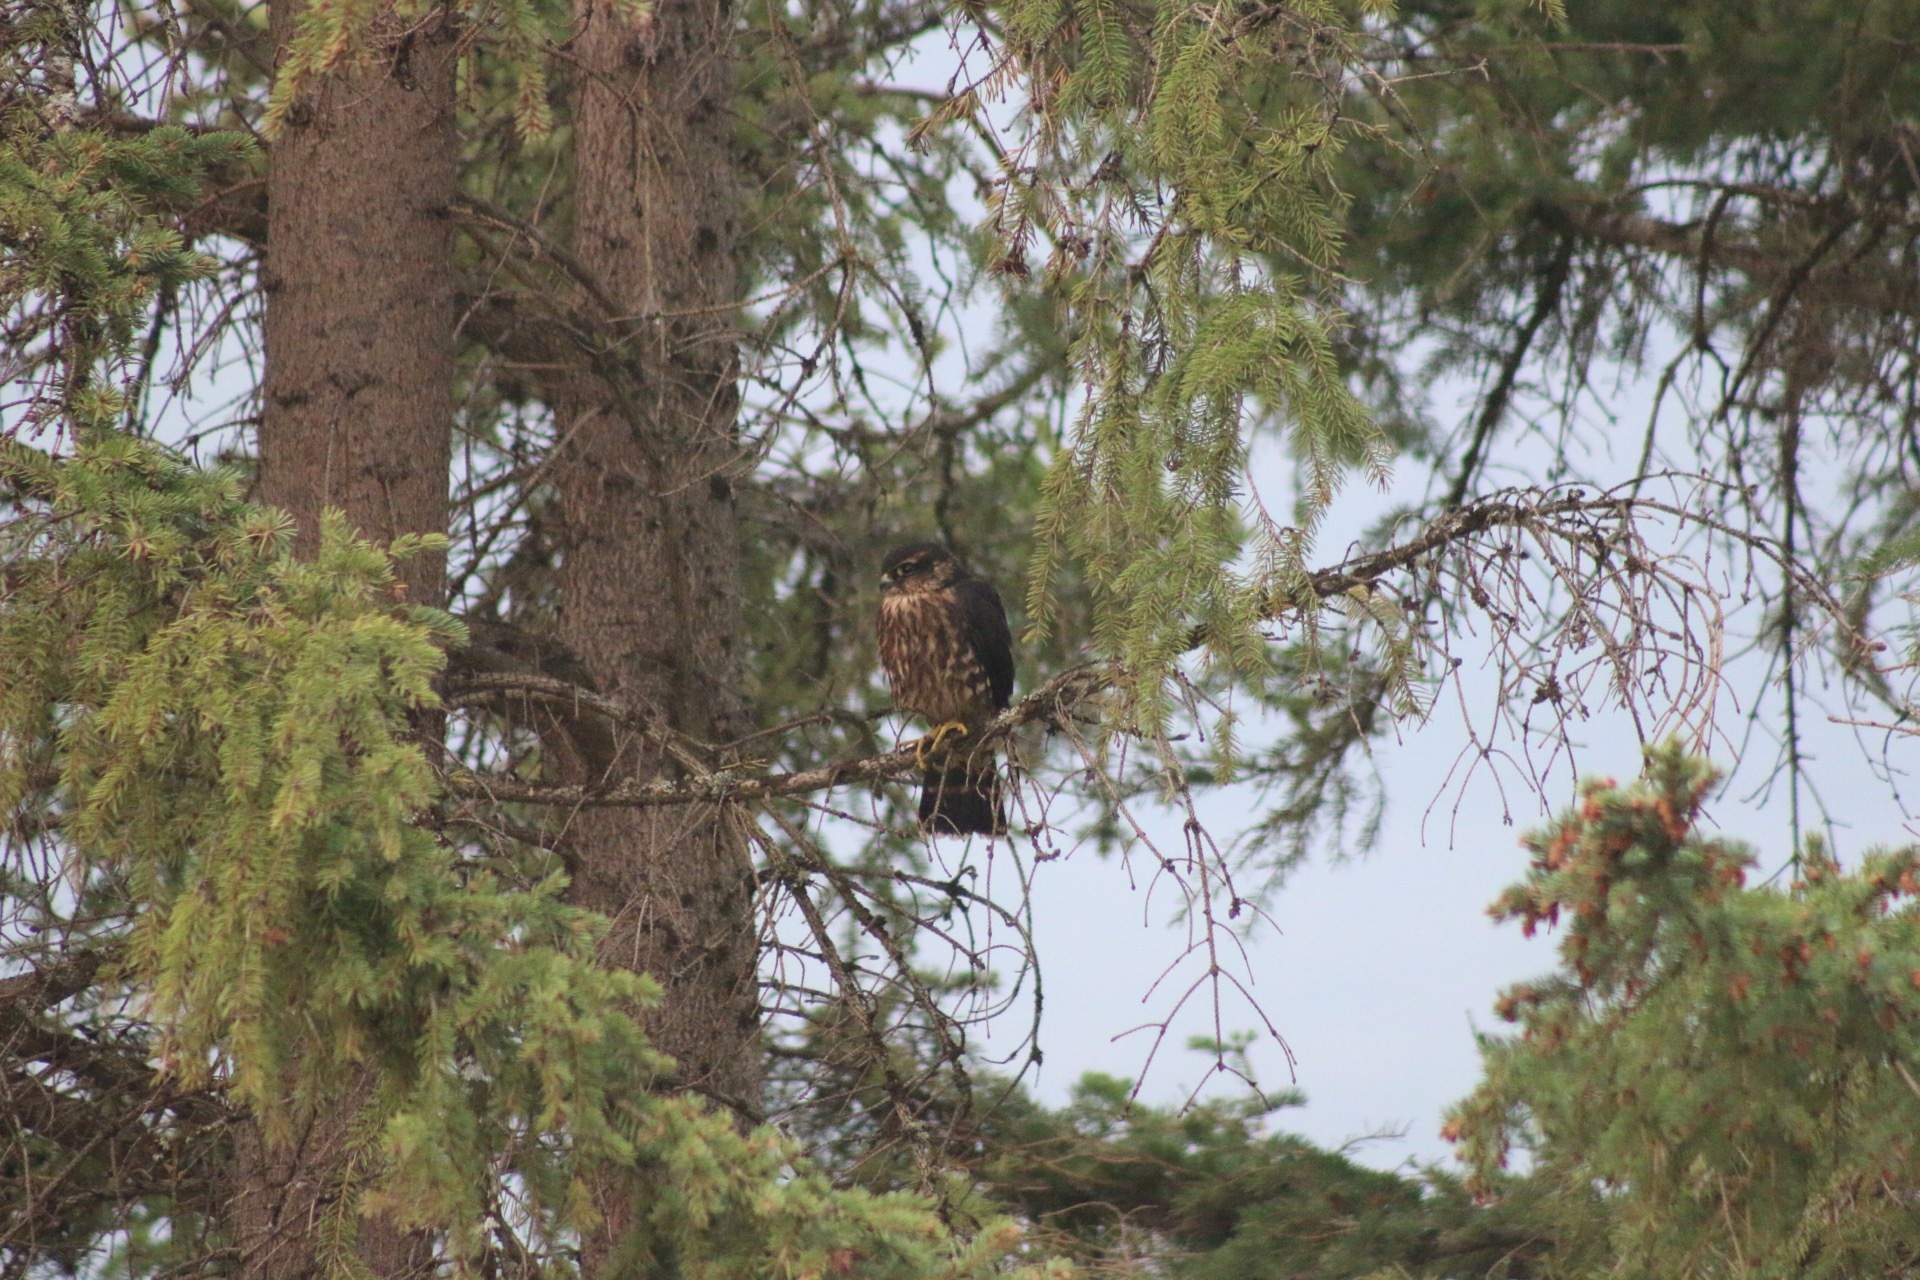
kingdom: Animalia
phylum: Chordata
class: Aves
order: Falconiformes
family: Falconidae
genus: Falco
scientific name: Falco columbarius
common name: Merlin
